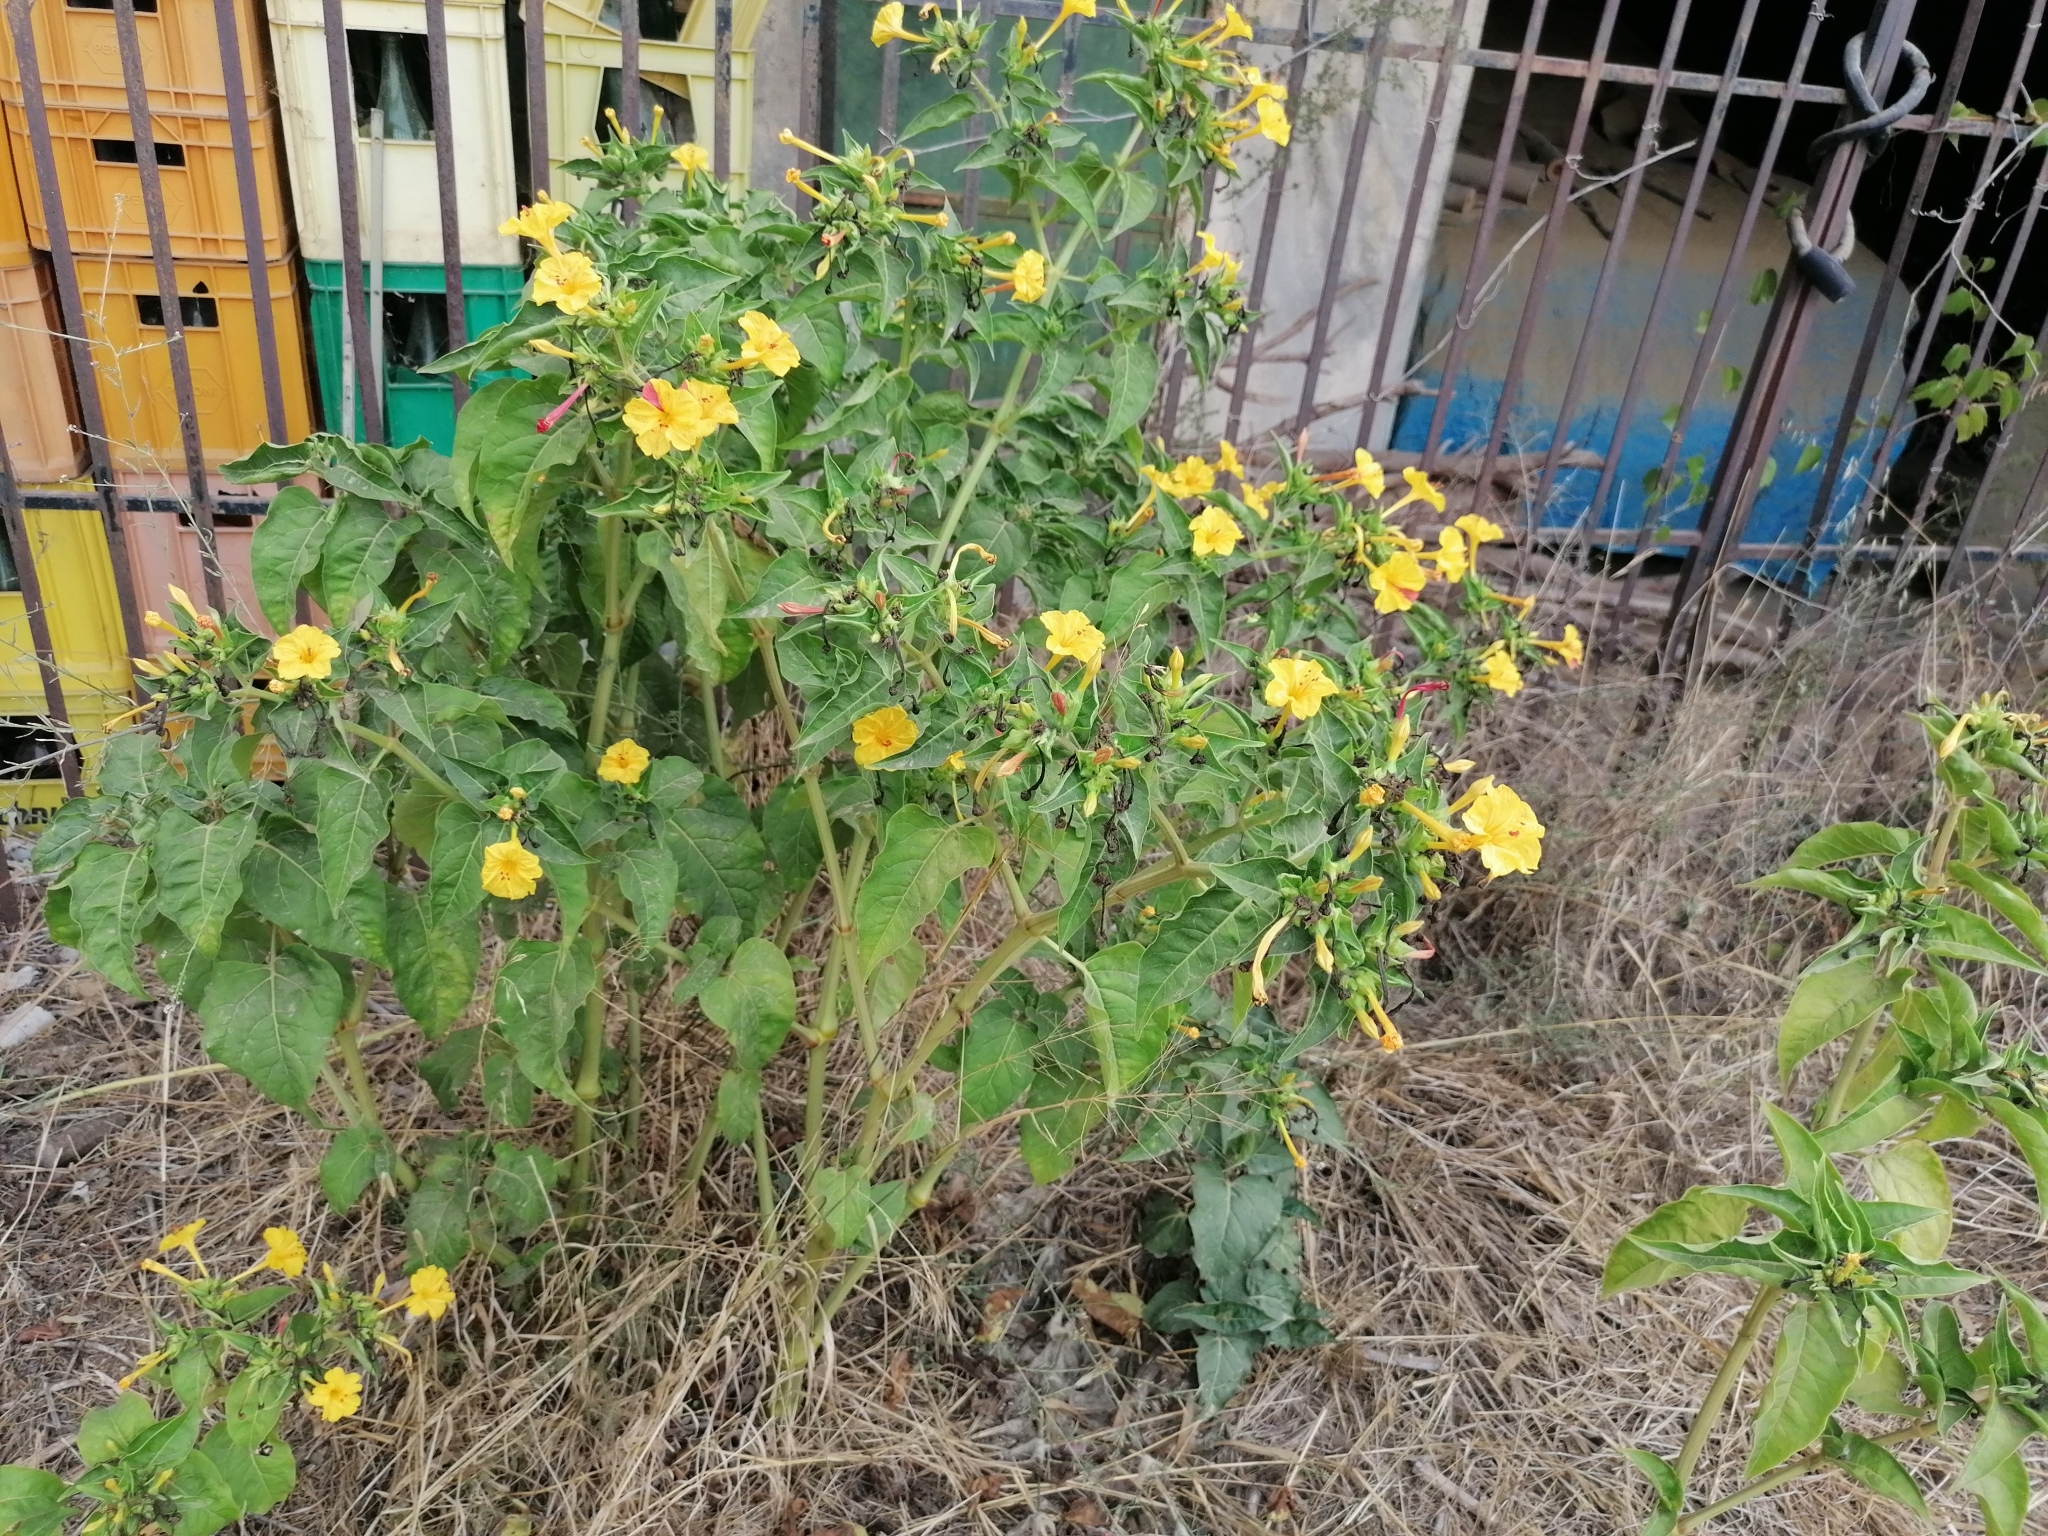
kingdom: Plantae
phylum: Tracheophyta
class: Magnoliopsida
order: Caryophyllales
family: Nyctaginaceae
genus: Mirabilis
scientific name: Mirabilis jalapa
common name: Marvel-of-peru
